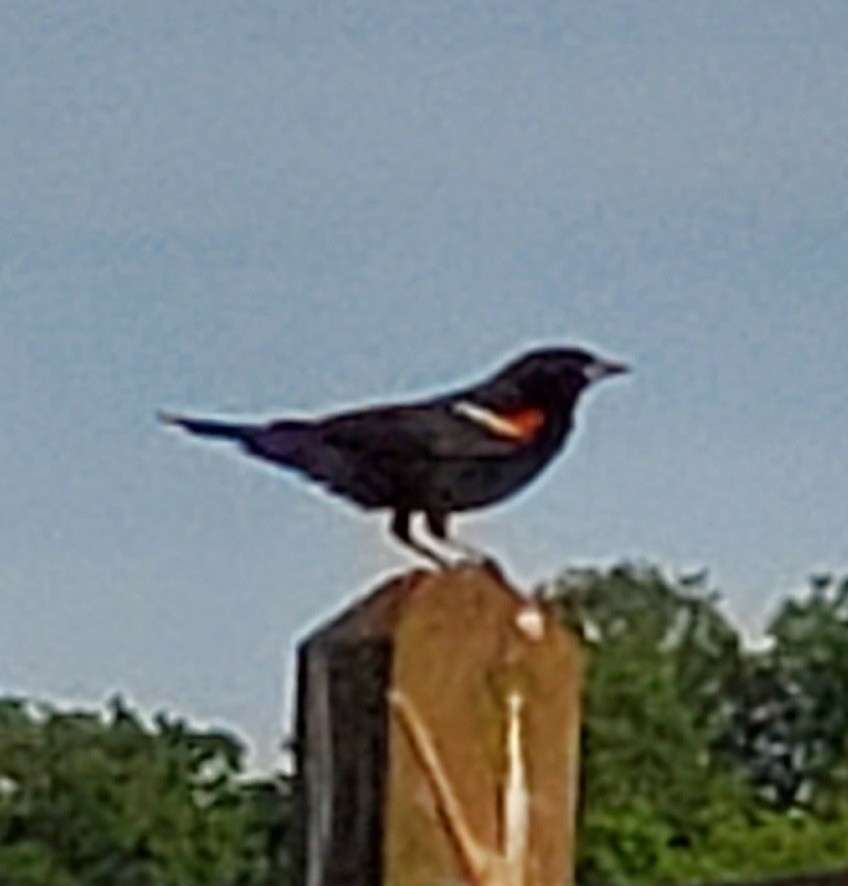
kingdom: Animalia
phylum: Chordata
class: Aves
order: Passeriformes
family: Icteridae
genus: Agelaius
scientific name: Agelaius phoeniceus
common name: Red-winged blackbird
